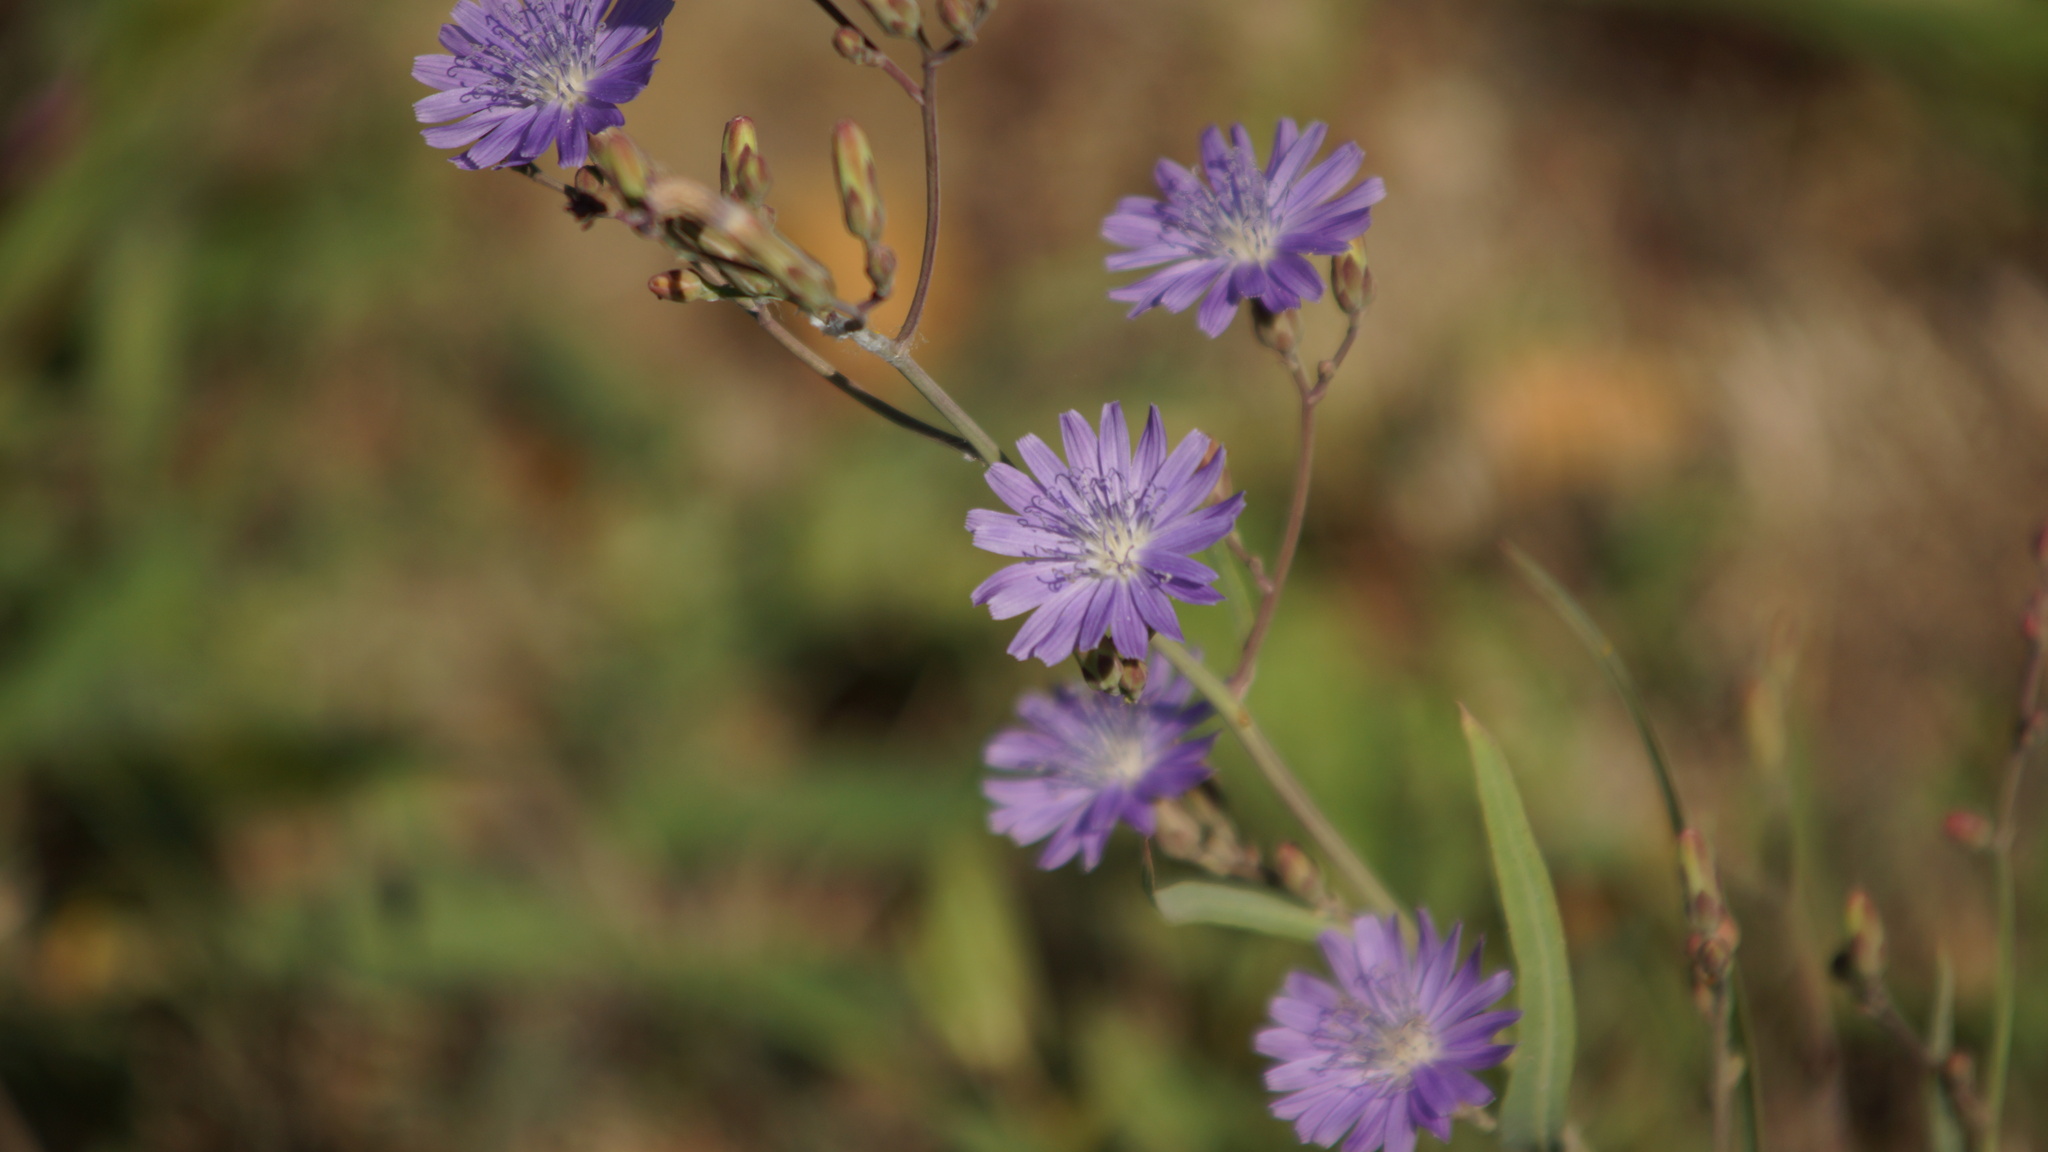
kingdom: Plantae
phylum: Tracheophyta
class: Magnoliopsida
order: Asterales
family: Asteraceae
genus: Lactuca
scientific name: Lactuca tatarica
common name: Blue lettuce
